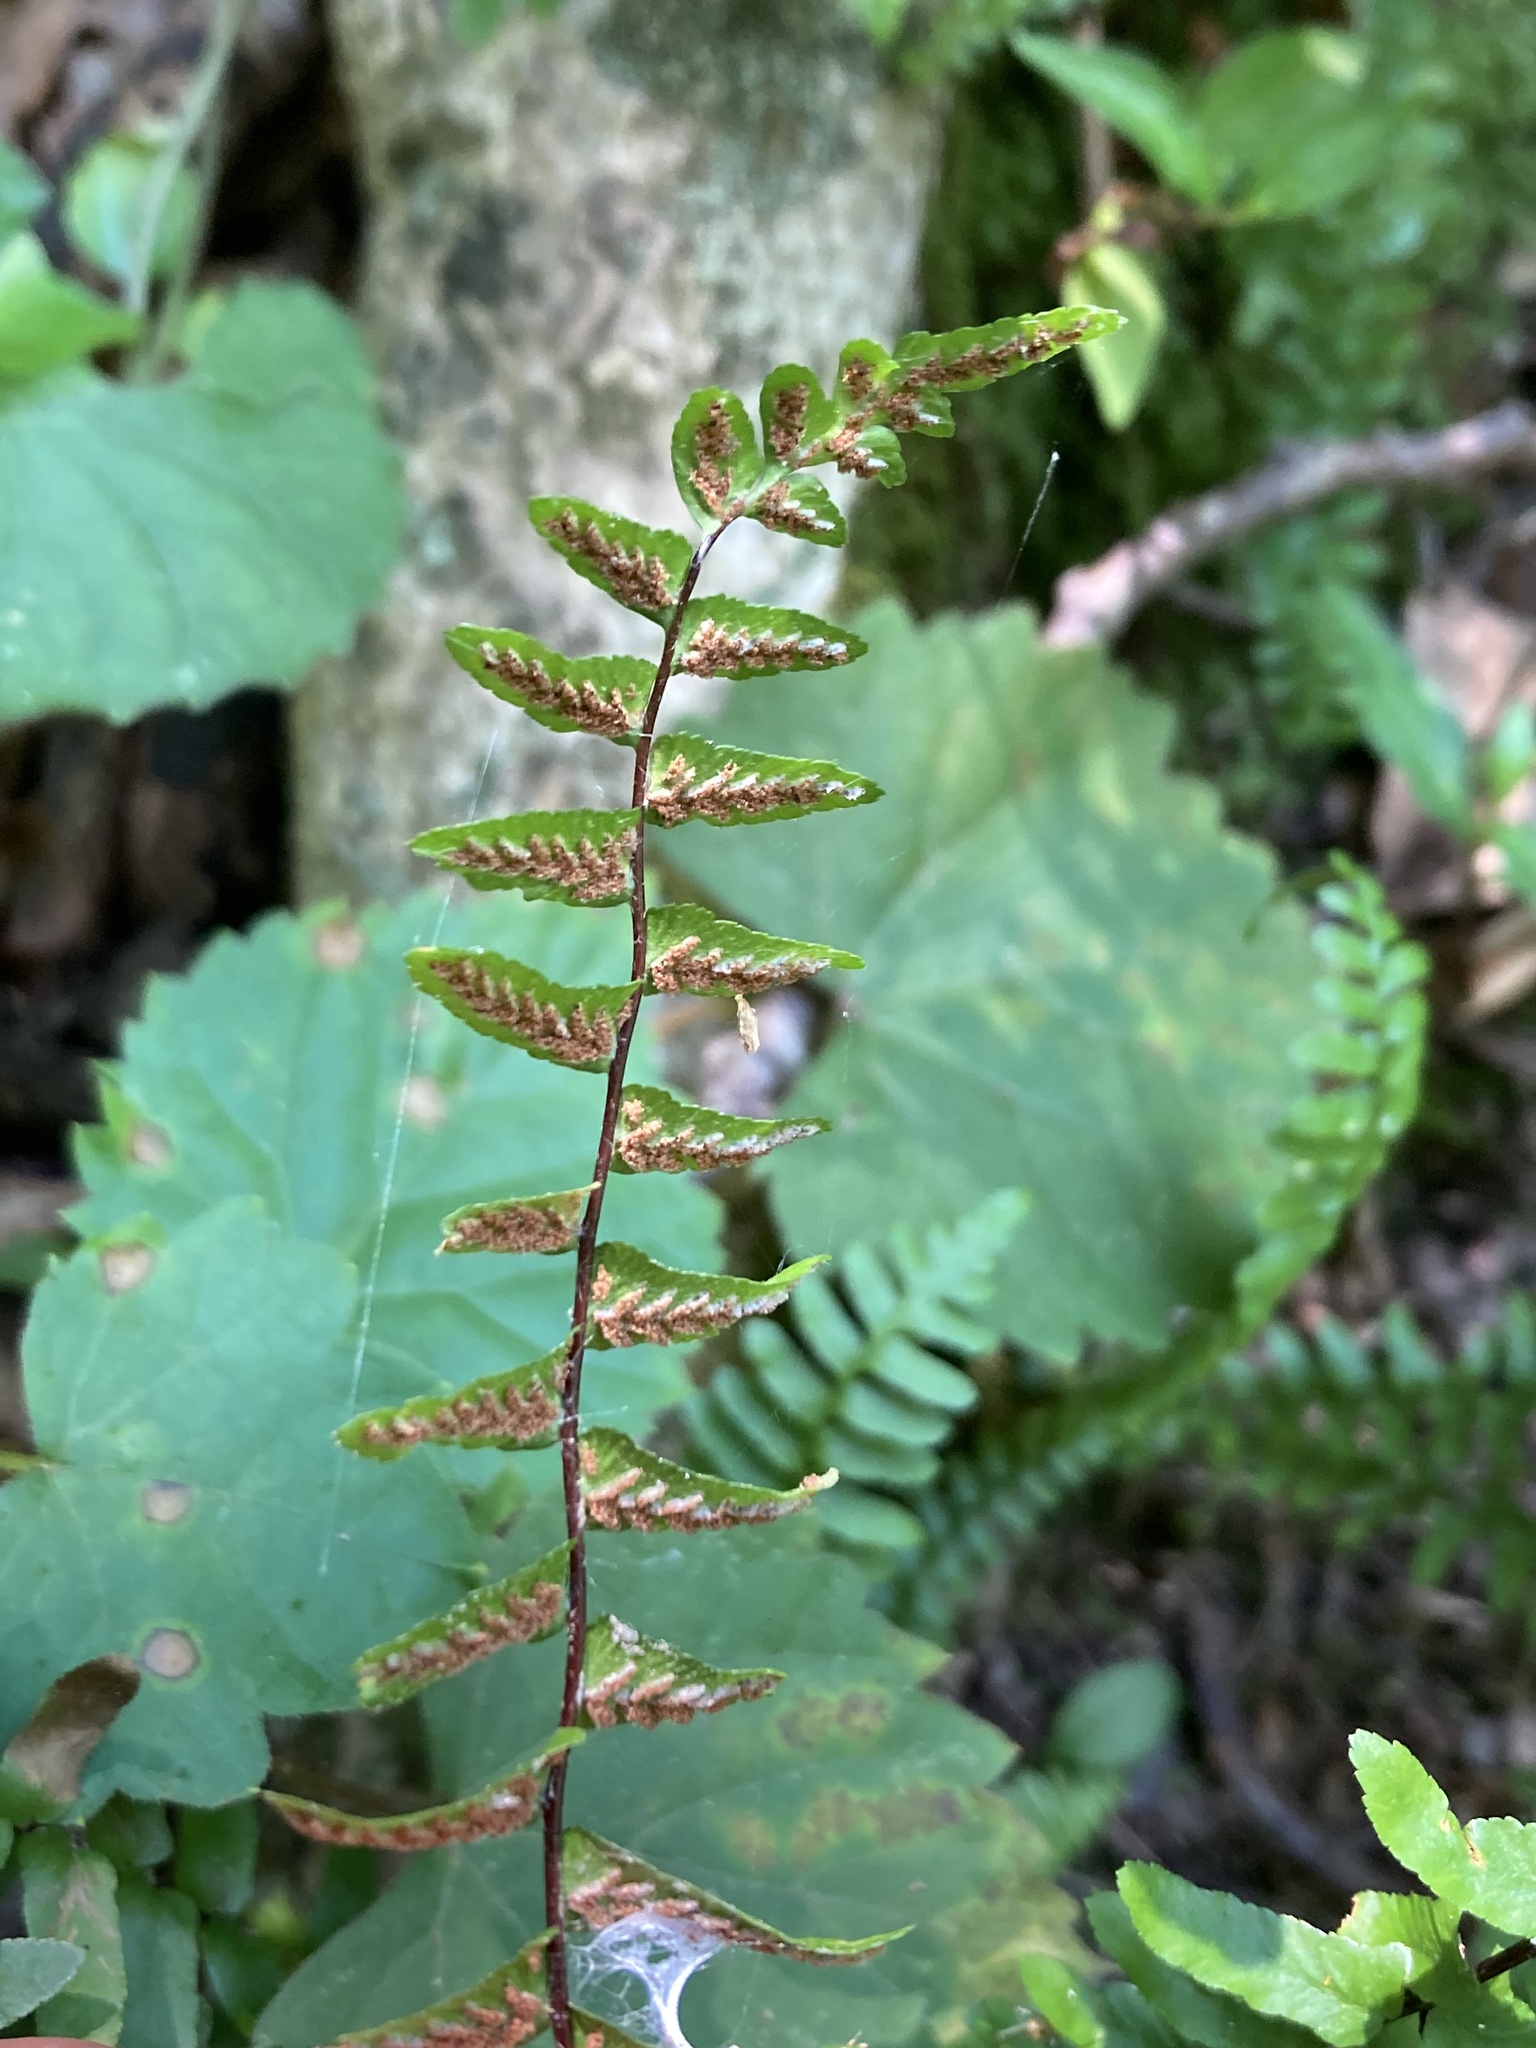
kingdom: Plantae
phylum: Tracheophyta
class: Polypodiopsida
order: Polypodiales
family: Aspleniaceae
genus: Asplenium
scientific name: Asplenium platyneuron
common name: Ebony spleenwort
